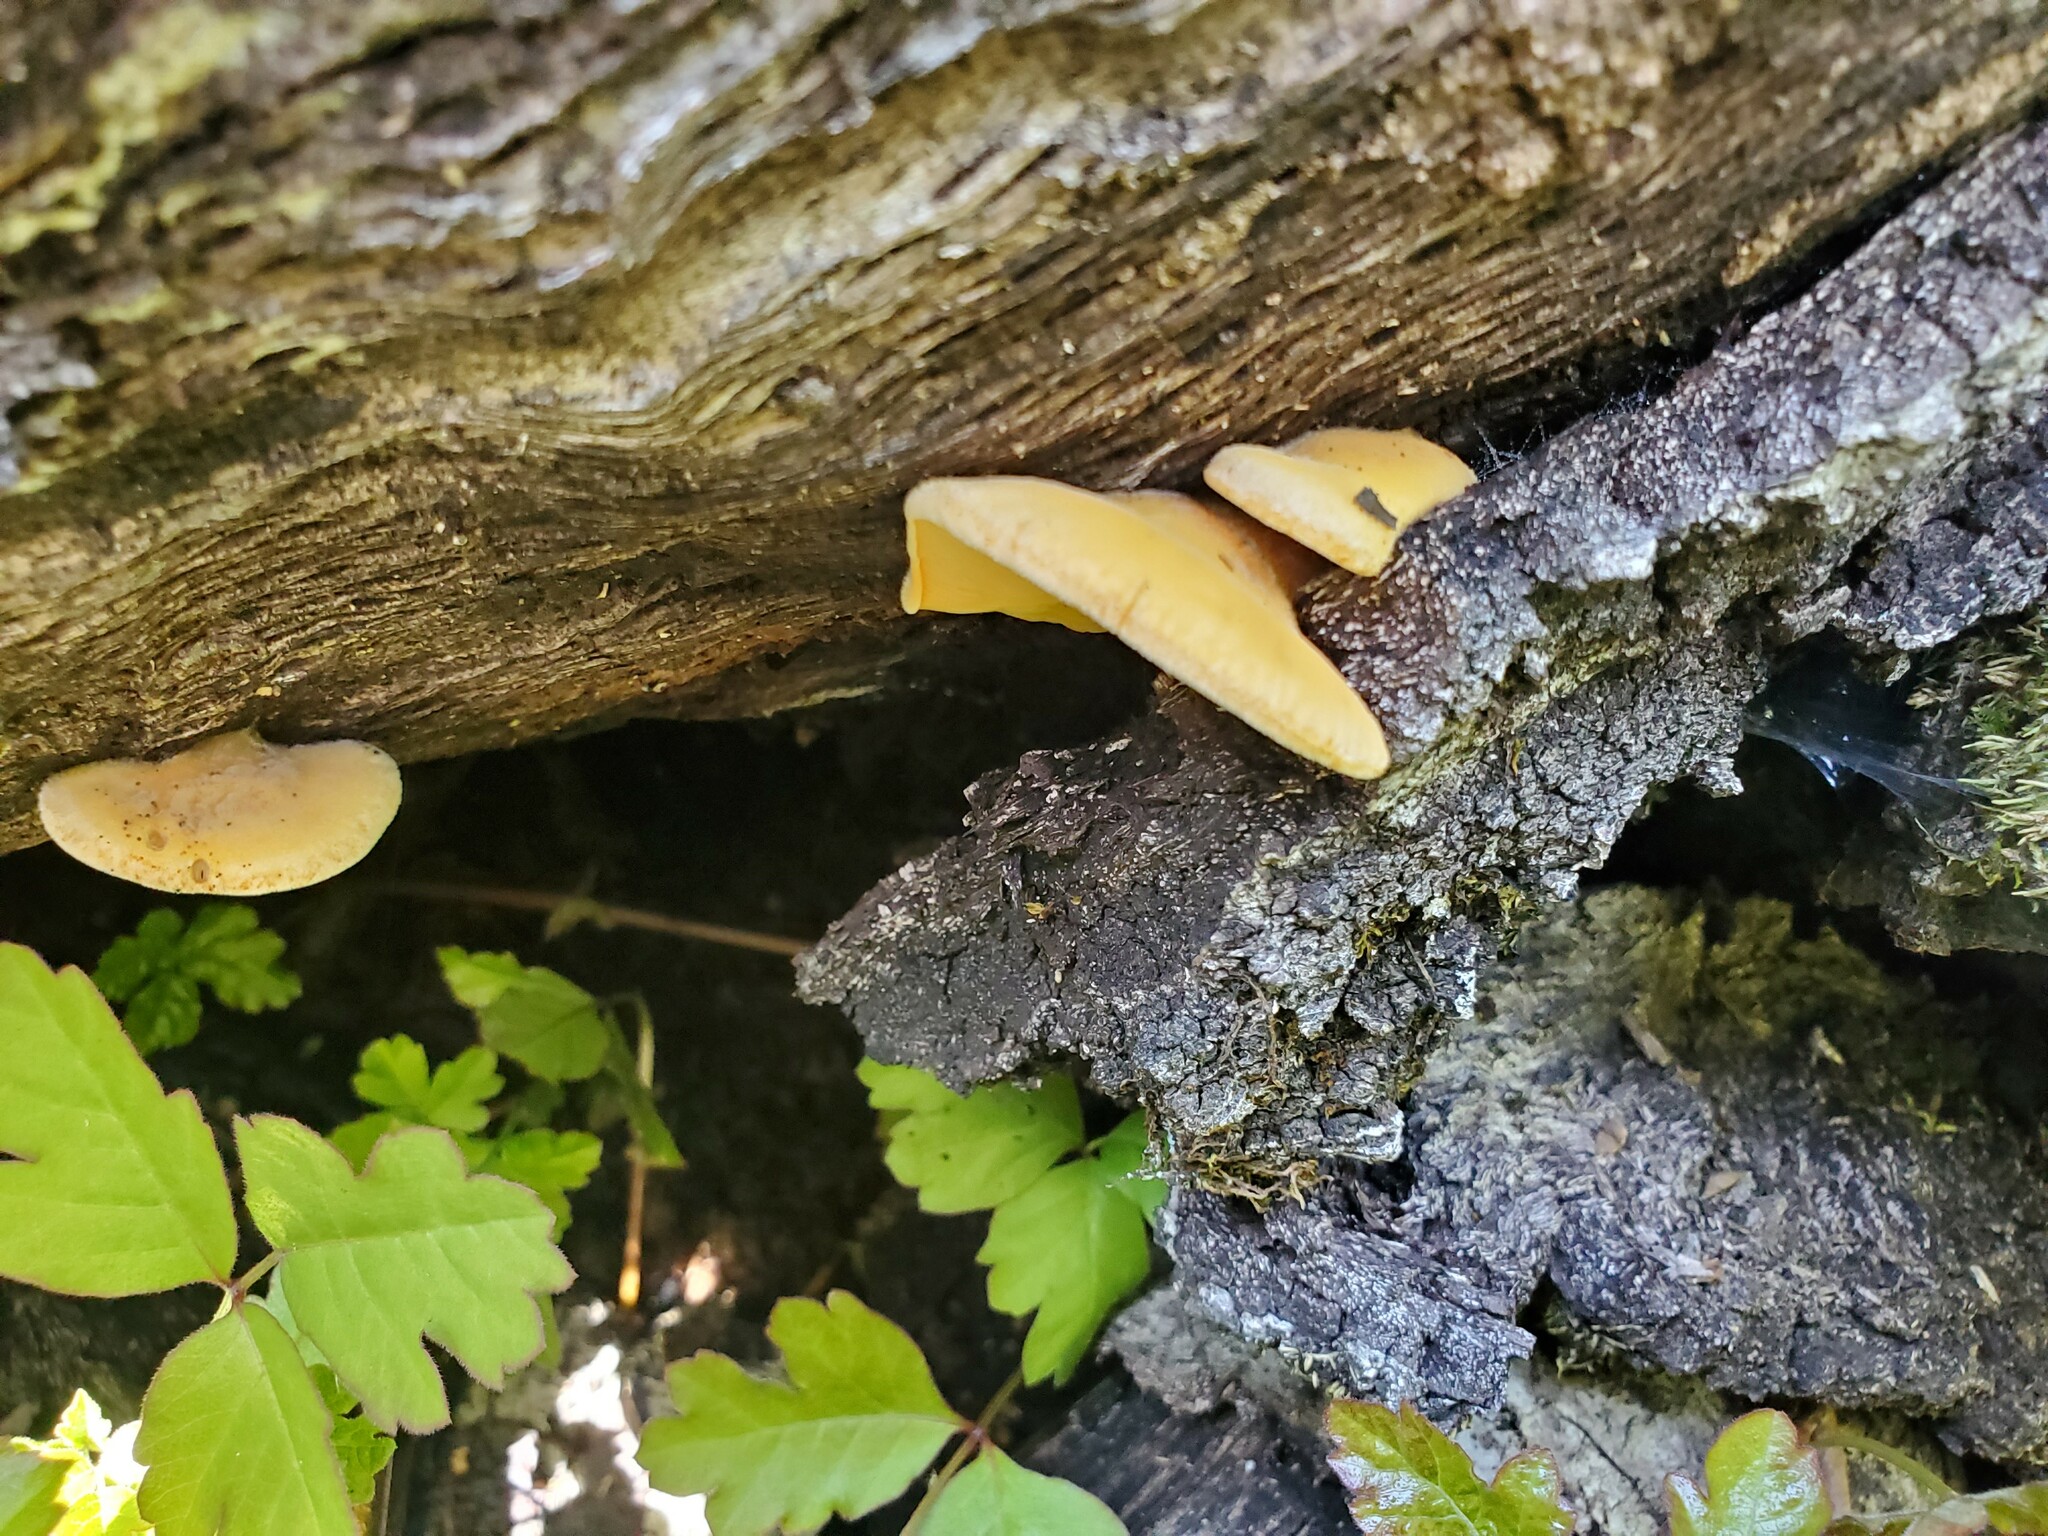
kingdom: Fungi
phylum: Basidiomycota
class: Agaricomycetes
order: Agaricales
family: Phyllotopsidaceae
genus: Phyllotopsis
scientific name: Phyllotopsis nidulans
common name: Orange mock oyster
